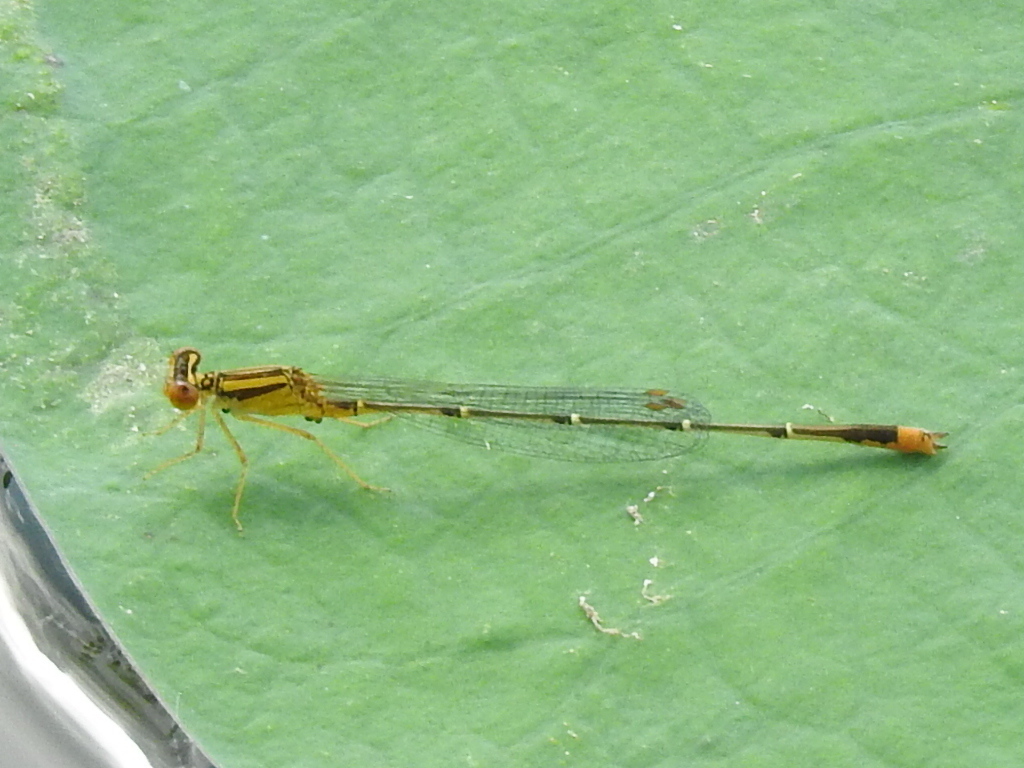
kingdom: Animalia
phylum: Arthropoda
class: Insecta
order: Odonata
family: Coenagrionidae
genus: Enallagma
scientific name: Enallagma signatum
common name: Orange bluet
